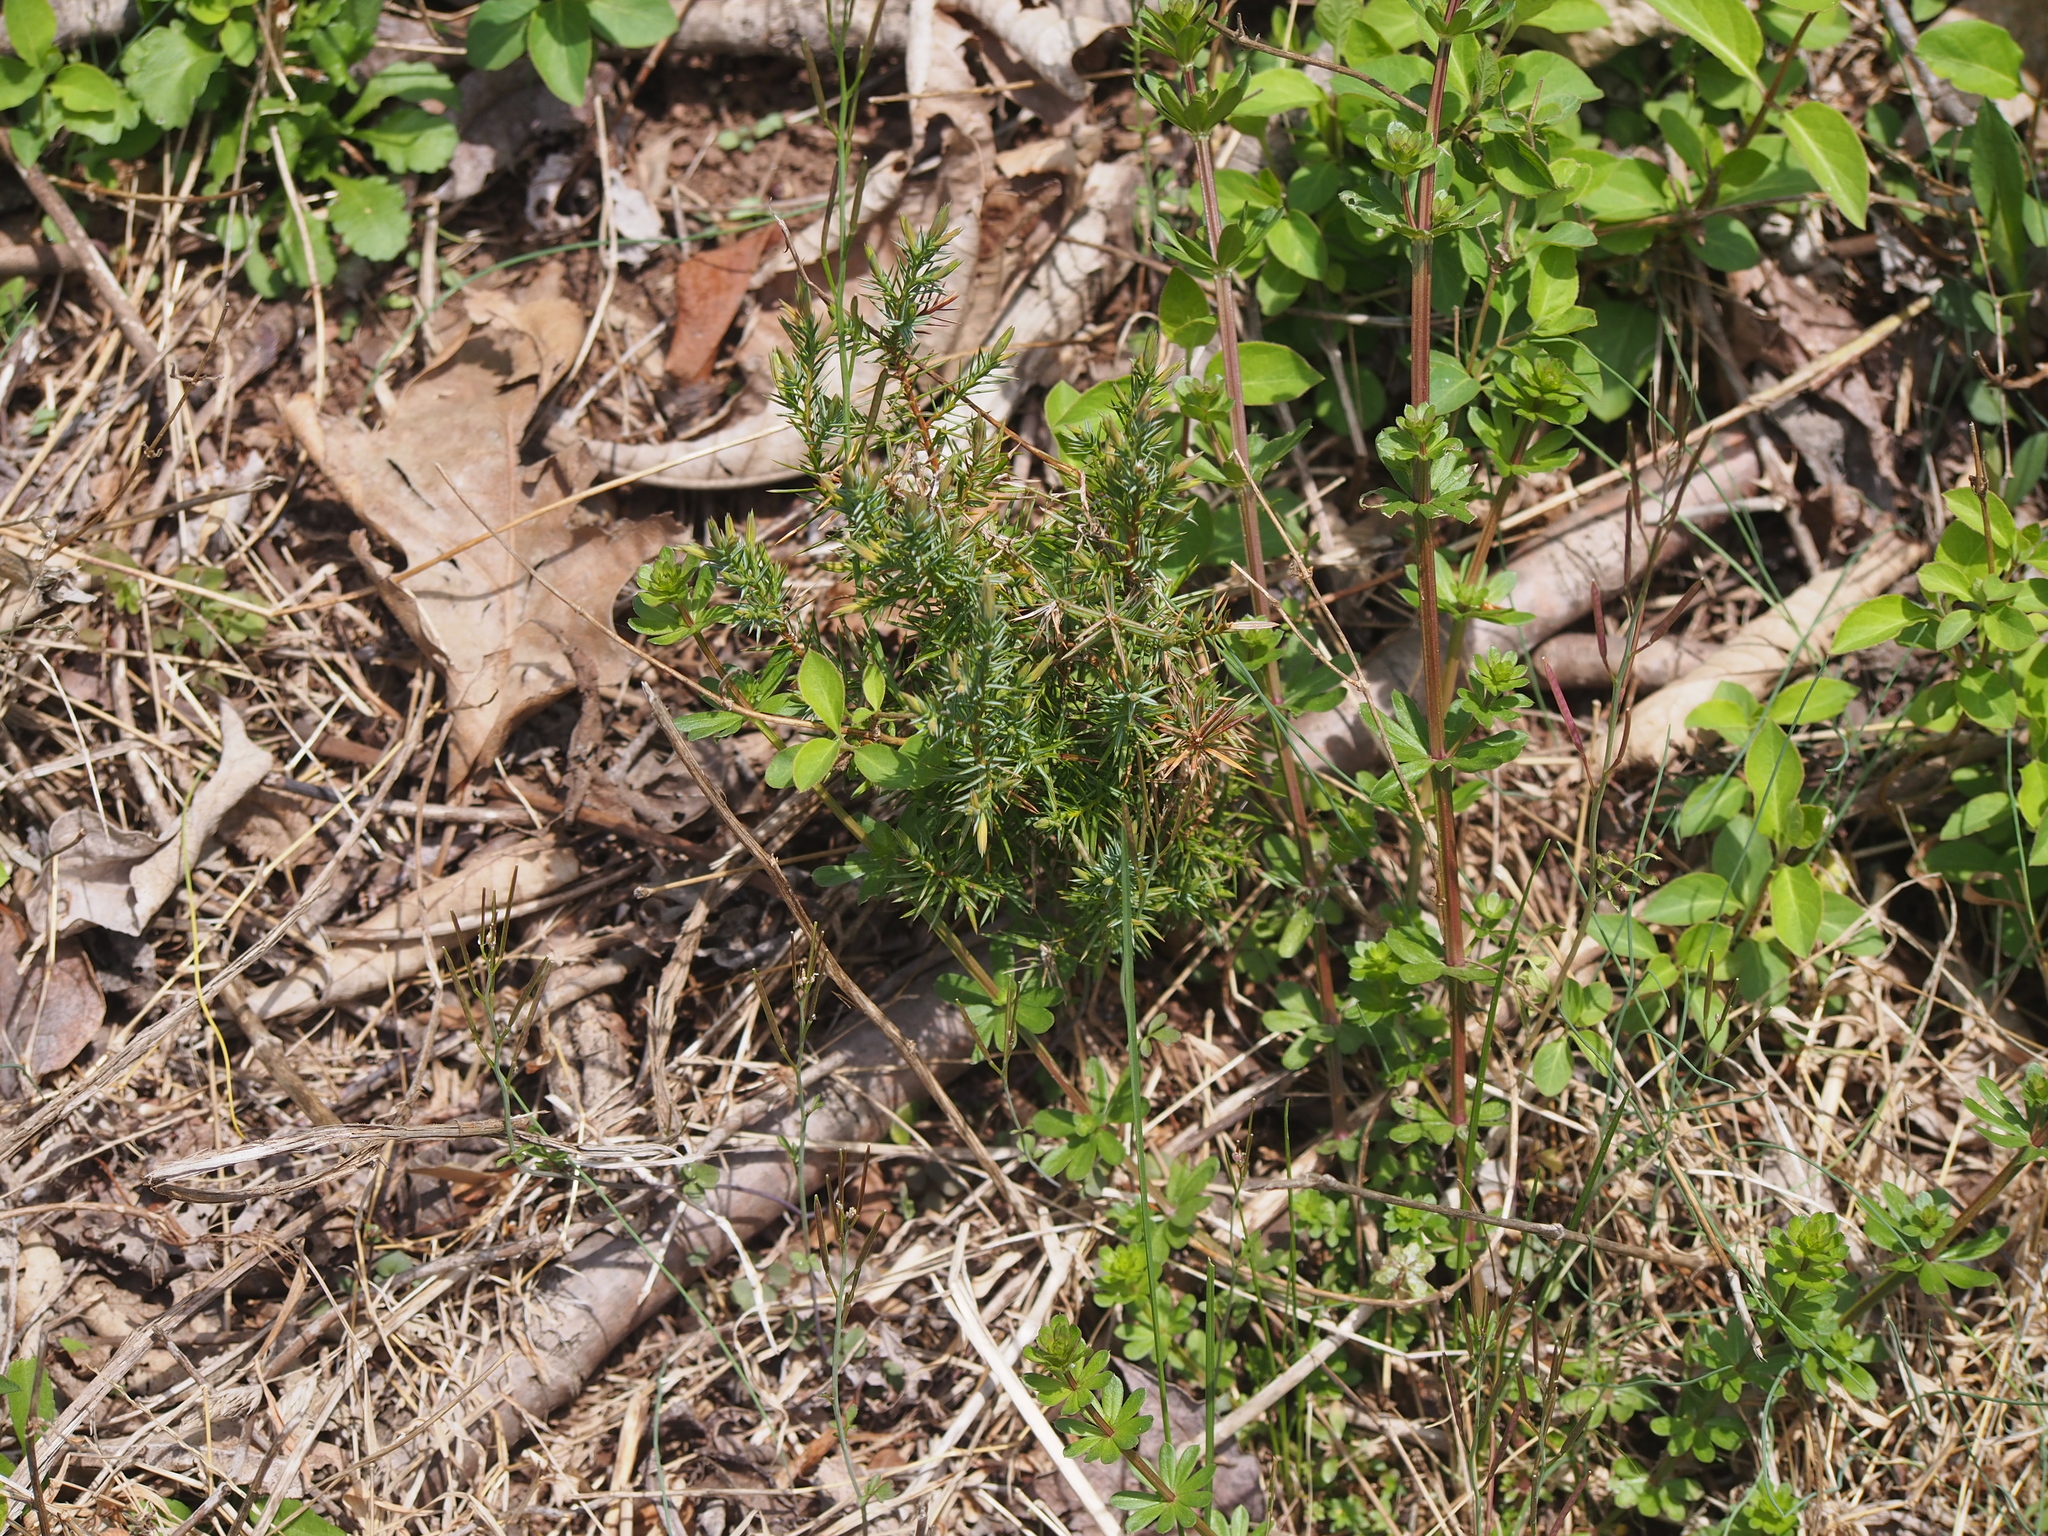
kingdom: Plantae
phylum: Tracheophyta
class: Pinopsida
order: Pinales
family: Cupressaceae
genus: Juniperus
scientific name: Juniperus virginiana
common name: Red juniper
